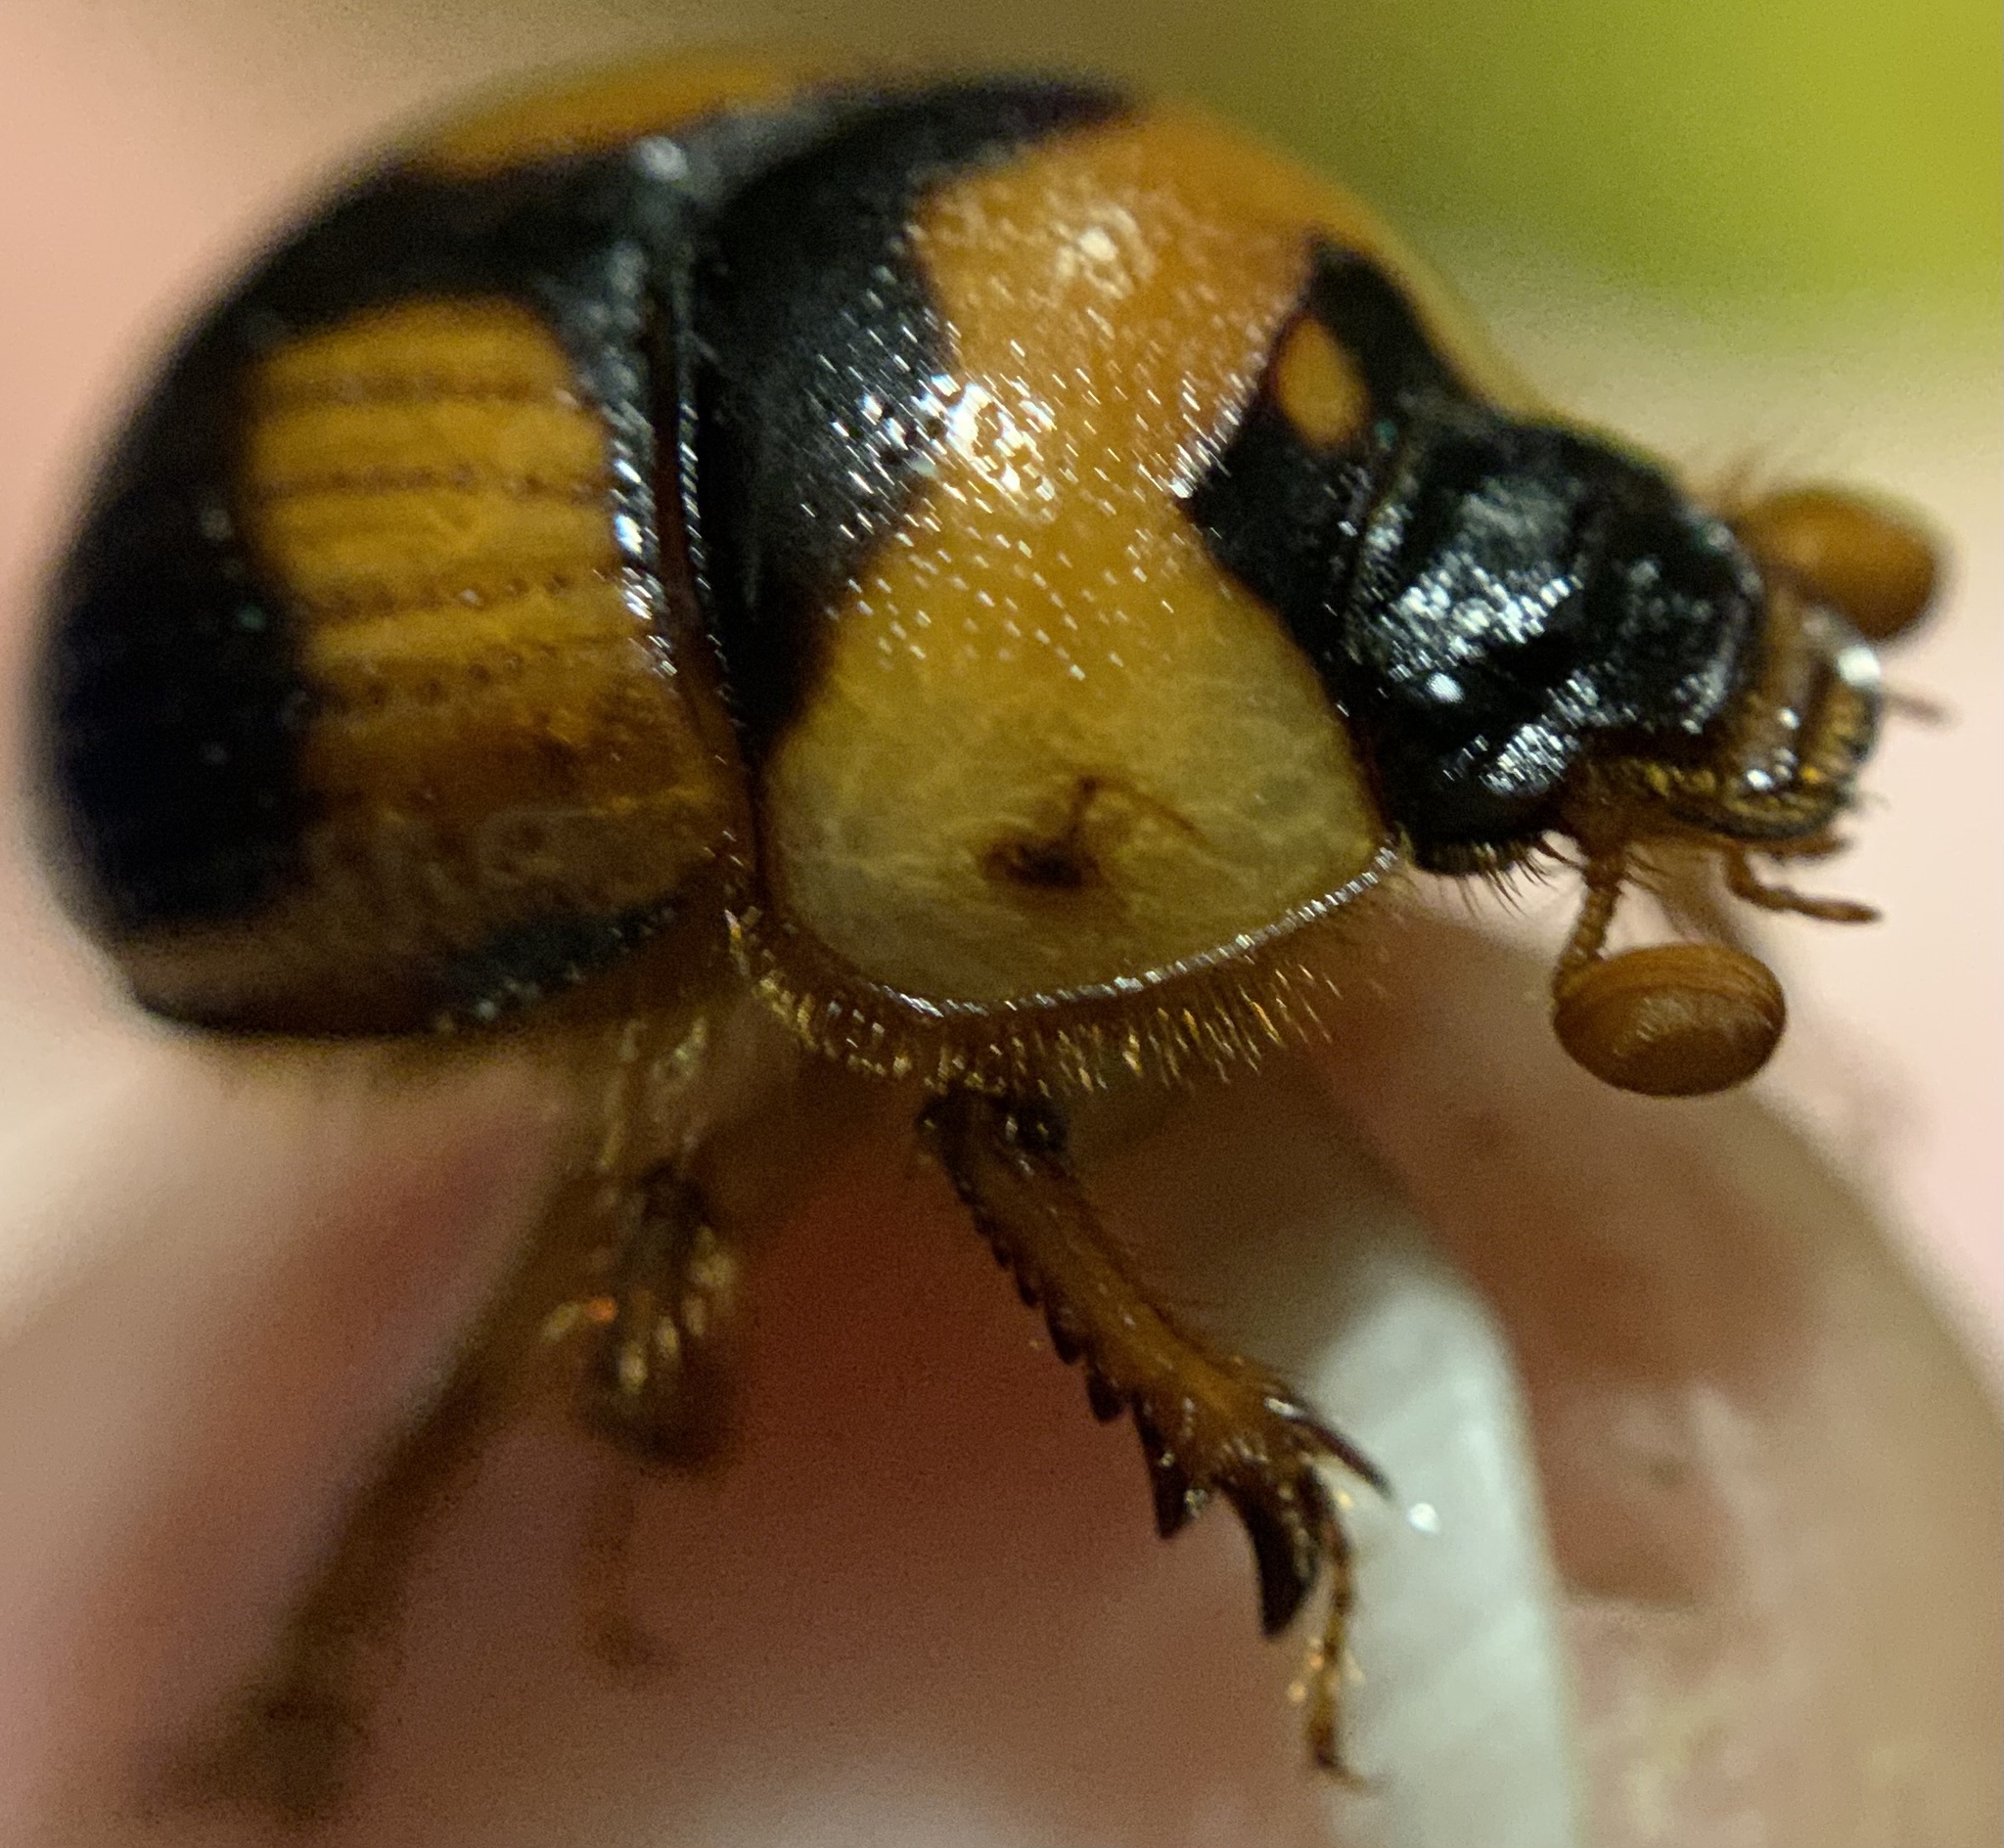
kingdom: Animalia
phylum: Arthropoda
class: Insecta
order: Coleoptera
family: Geotrupidae
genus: Bolbocerosoma
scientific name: Bolbocerosoma hamatum
